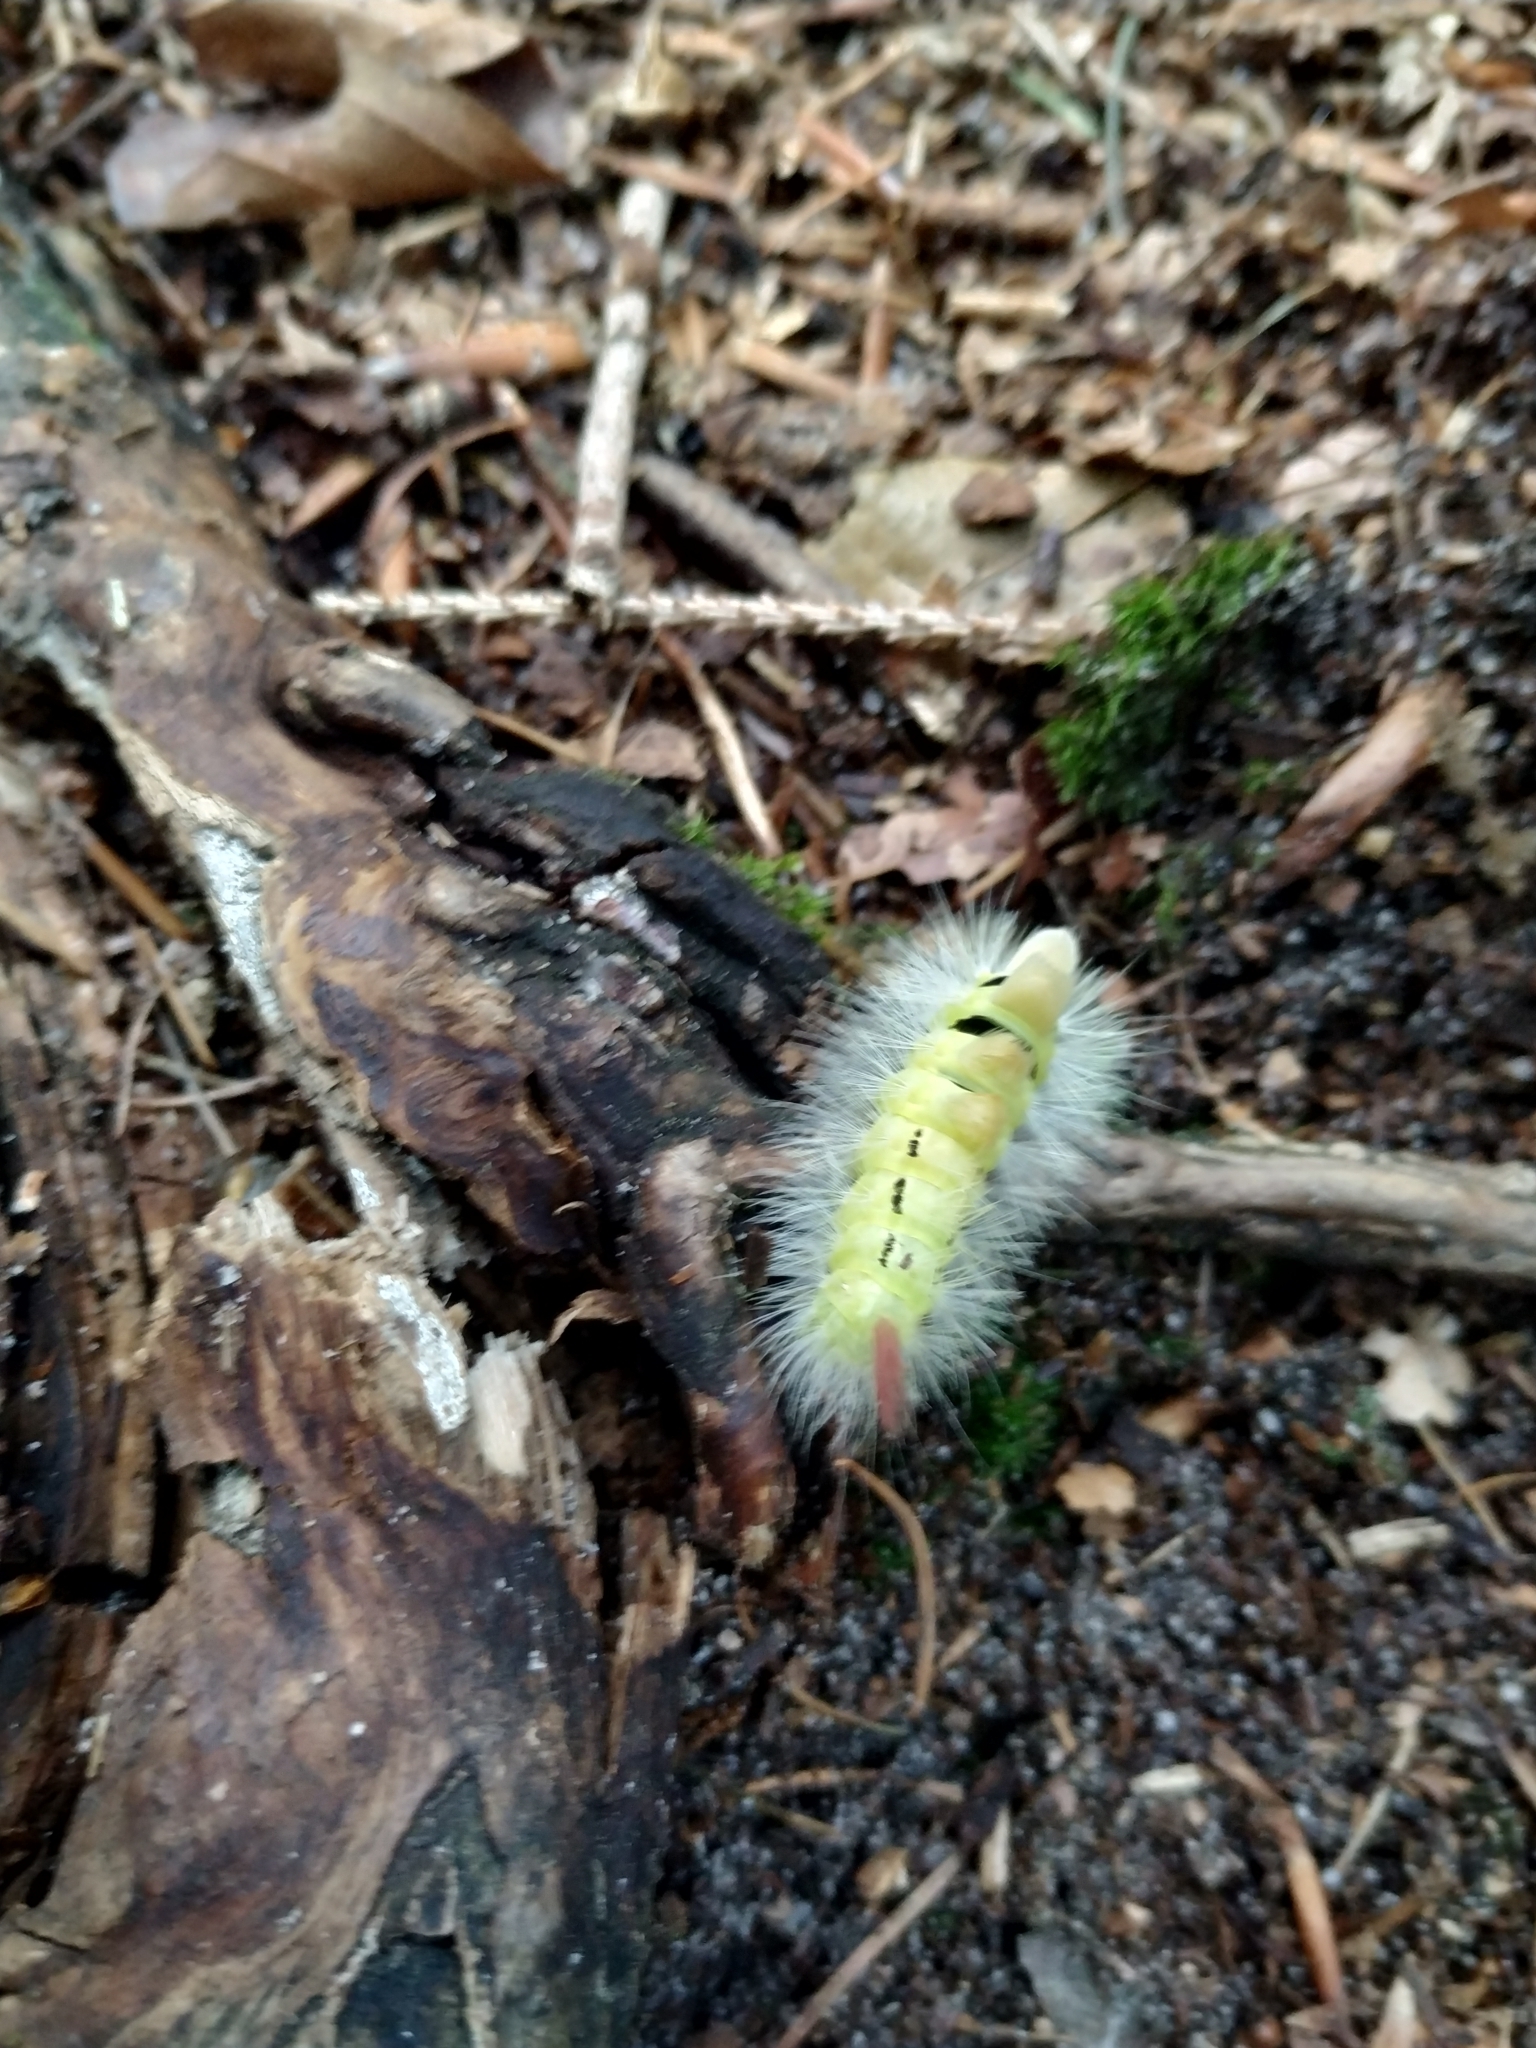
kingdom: Animalia
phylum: Arthropoda
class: Insecta
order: Lepidoptera
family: Erebidae
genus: Calliteara
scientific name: Calliteara pudibunda
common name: Pale tussock
